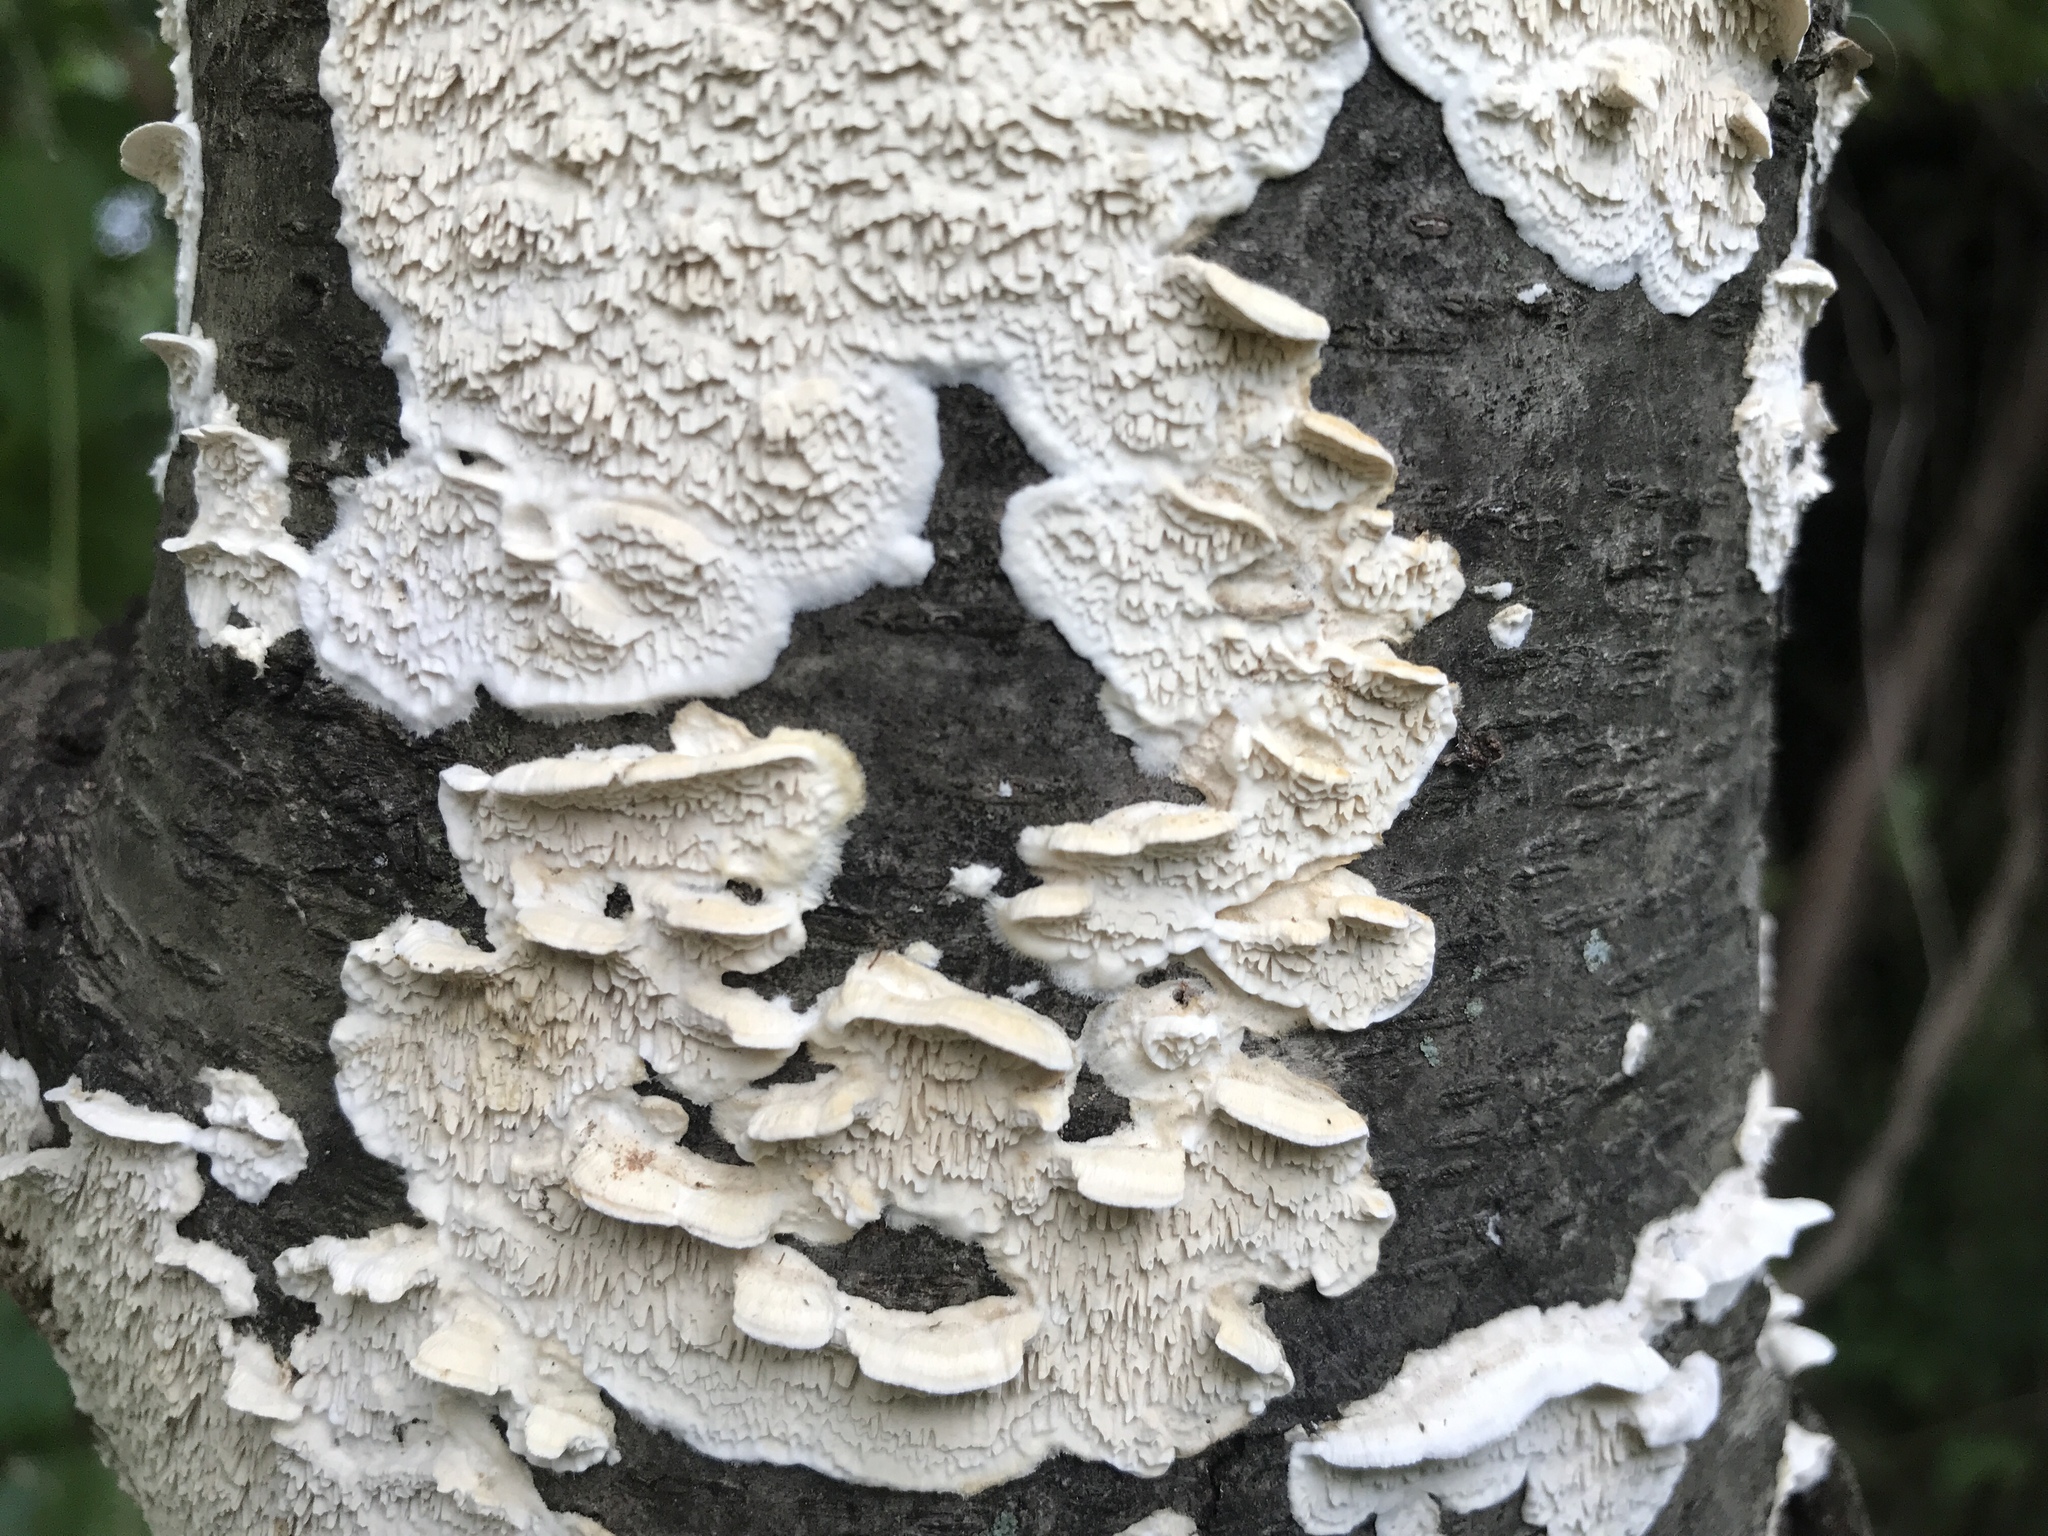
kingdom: Fungi
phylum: Basidiomycota
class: Agaricomycetes
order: Polyporales
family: Irpicaceae
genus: Irpex
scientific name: Irpex lacteus
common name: Milk-white toothed polypore
